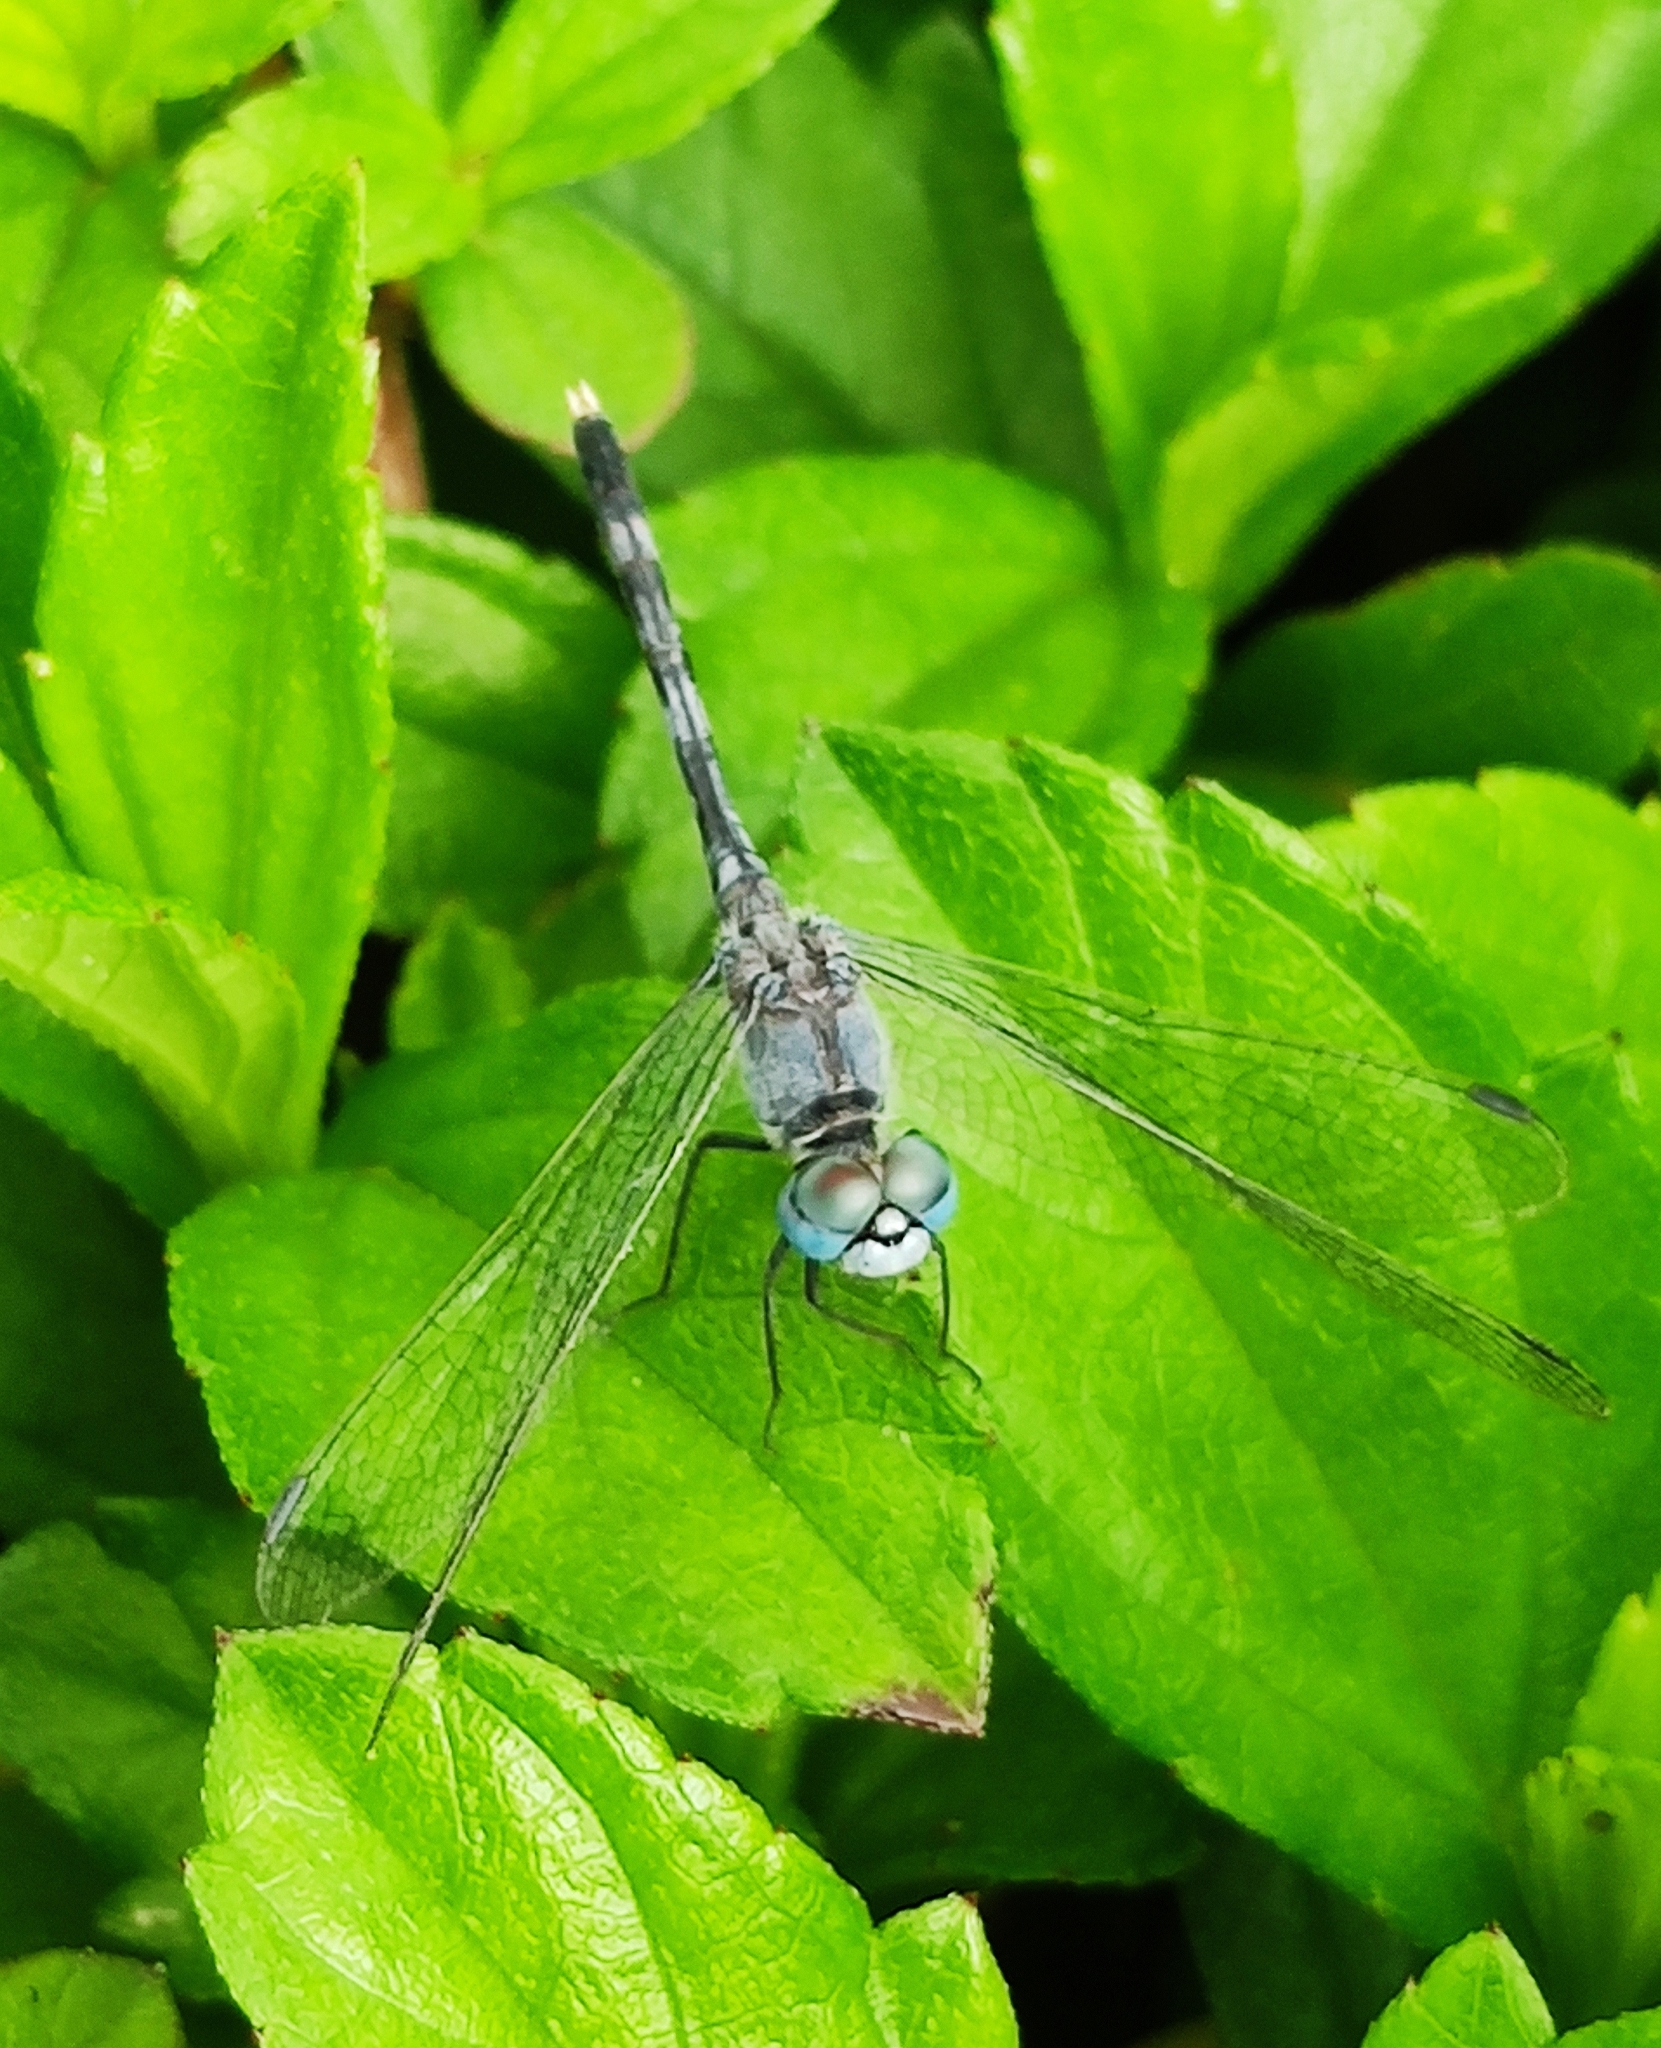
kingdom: Animalia
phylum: Arthropoda
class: Insecta
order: Odonata
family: Libellulidae
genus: Diplacodes
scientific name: Diplacodes trivialis
